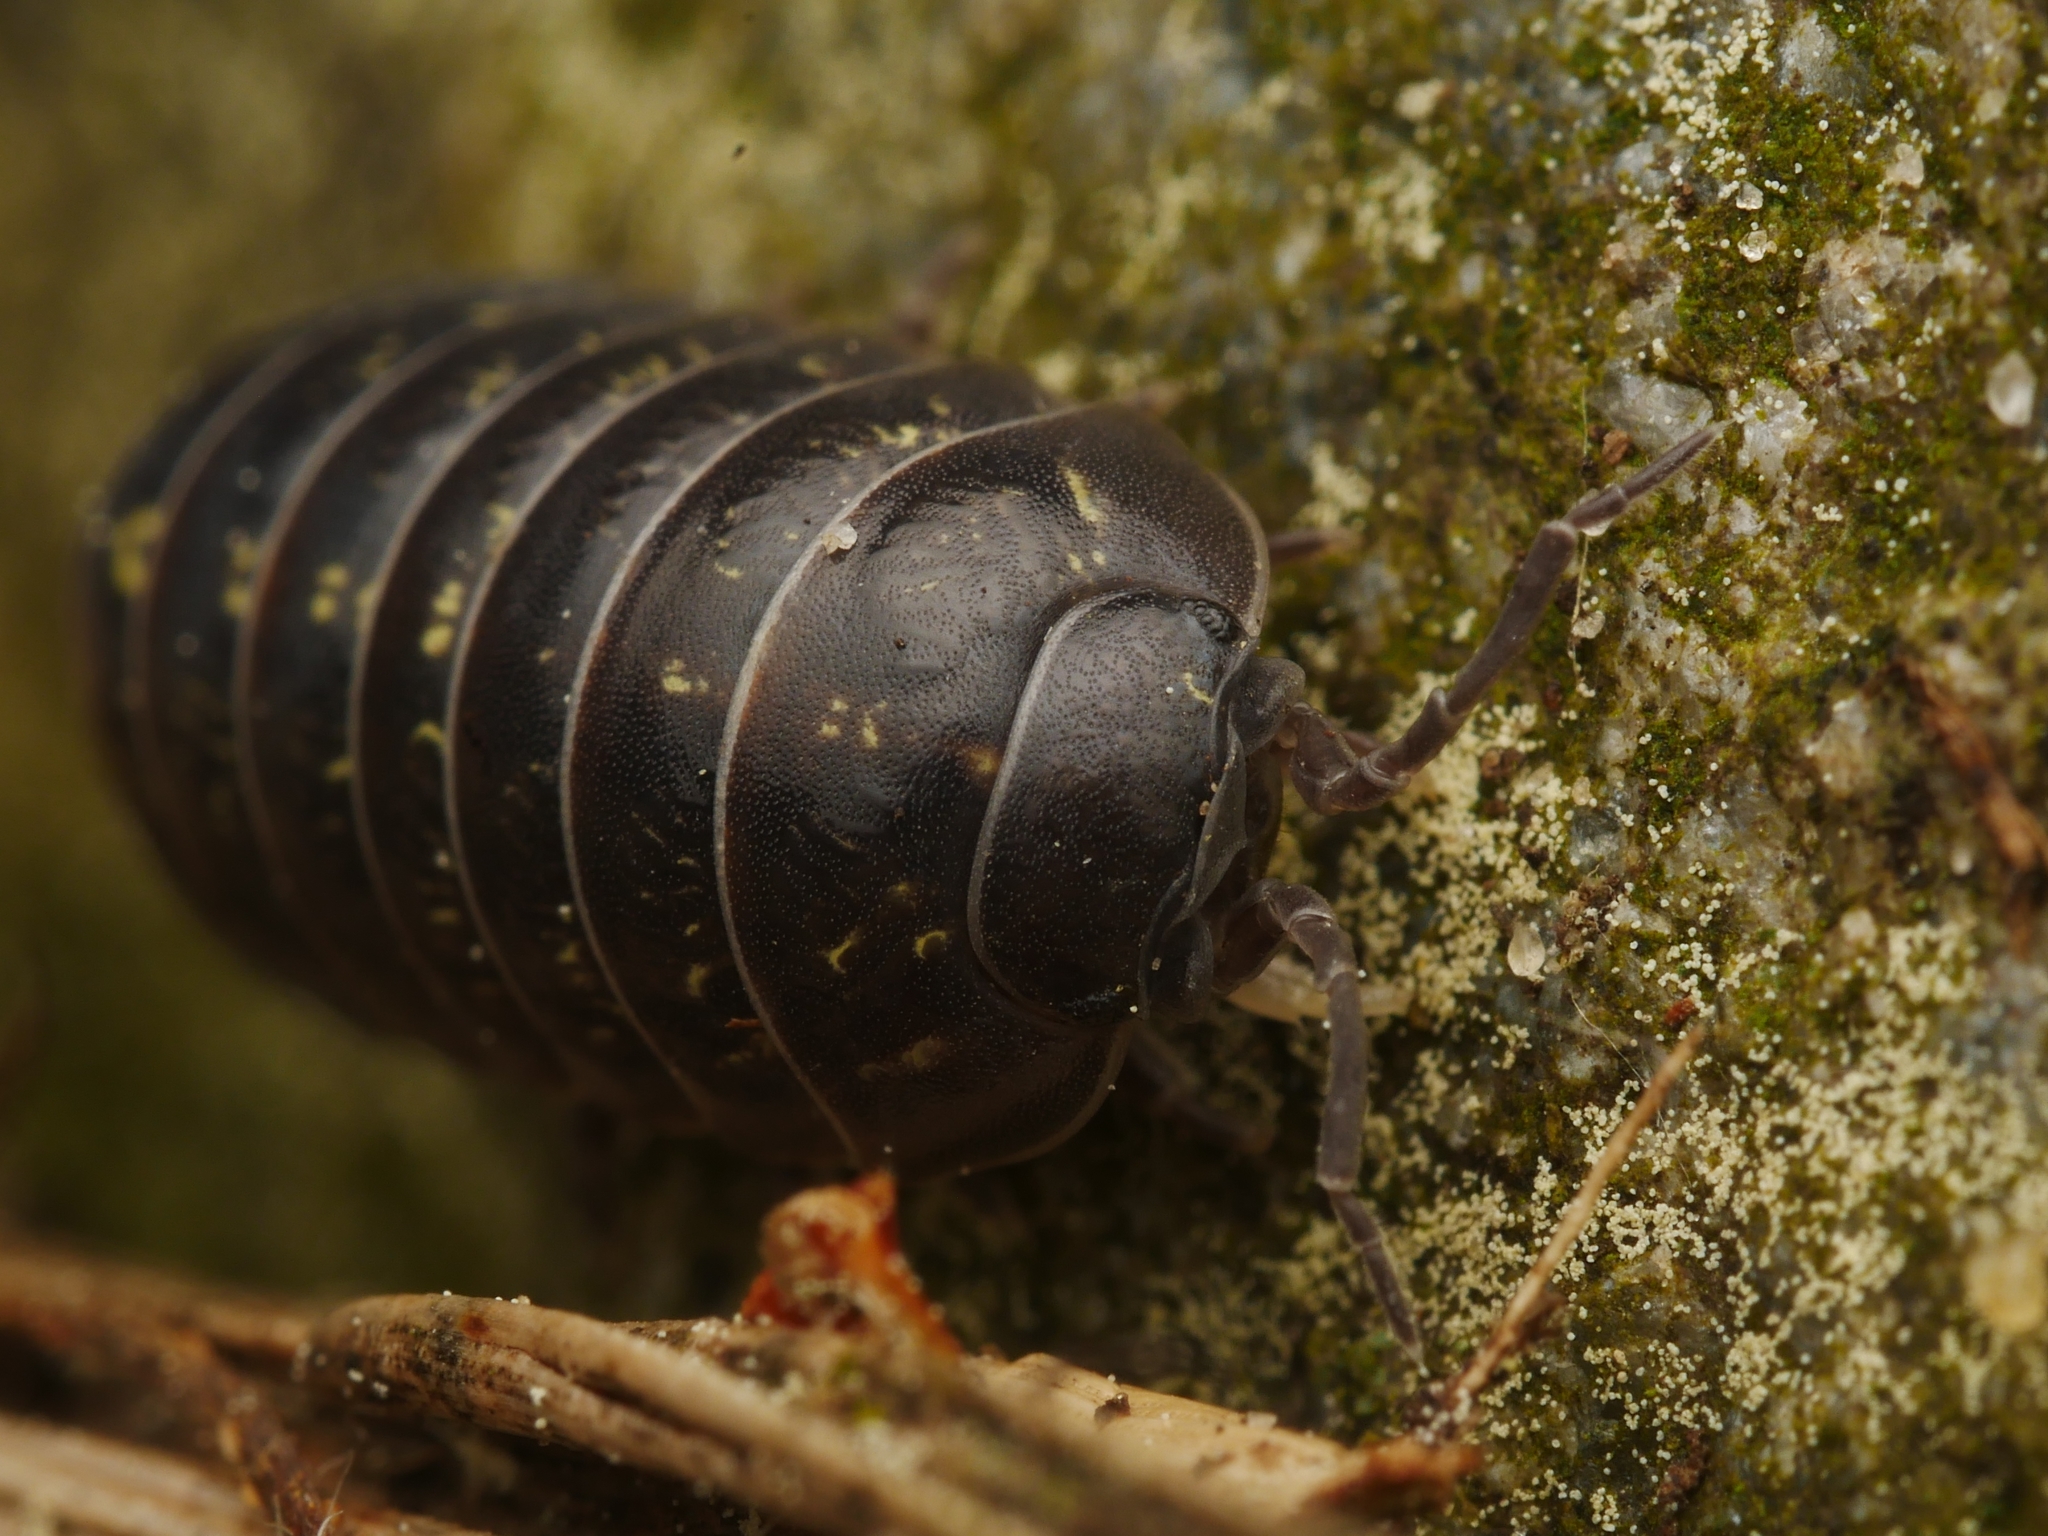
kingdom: Animalia
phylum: Arthropoda
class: Malacostraca
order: Isopoda
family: Armadillidiidae
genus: Armadillidium
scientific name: Armadillidium vulgare
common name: Common pill woodlouse
